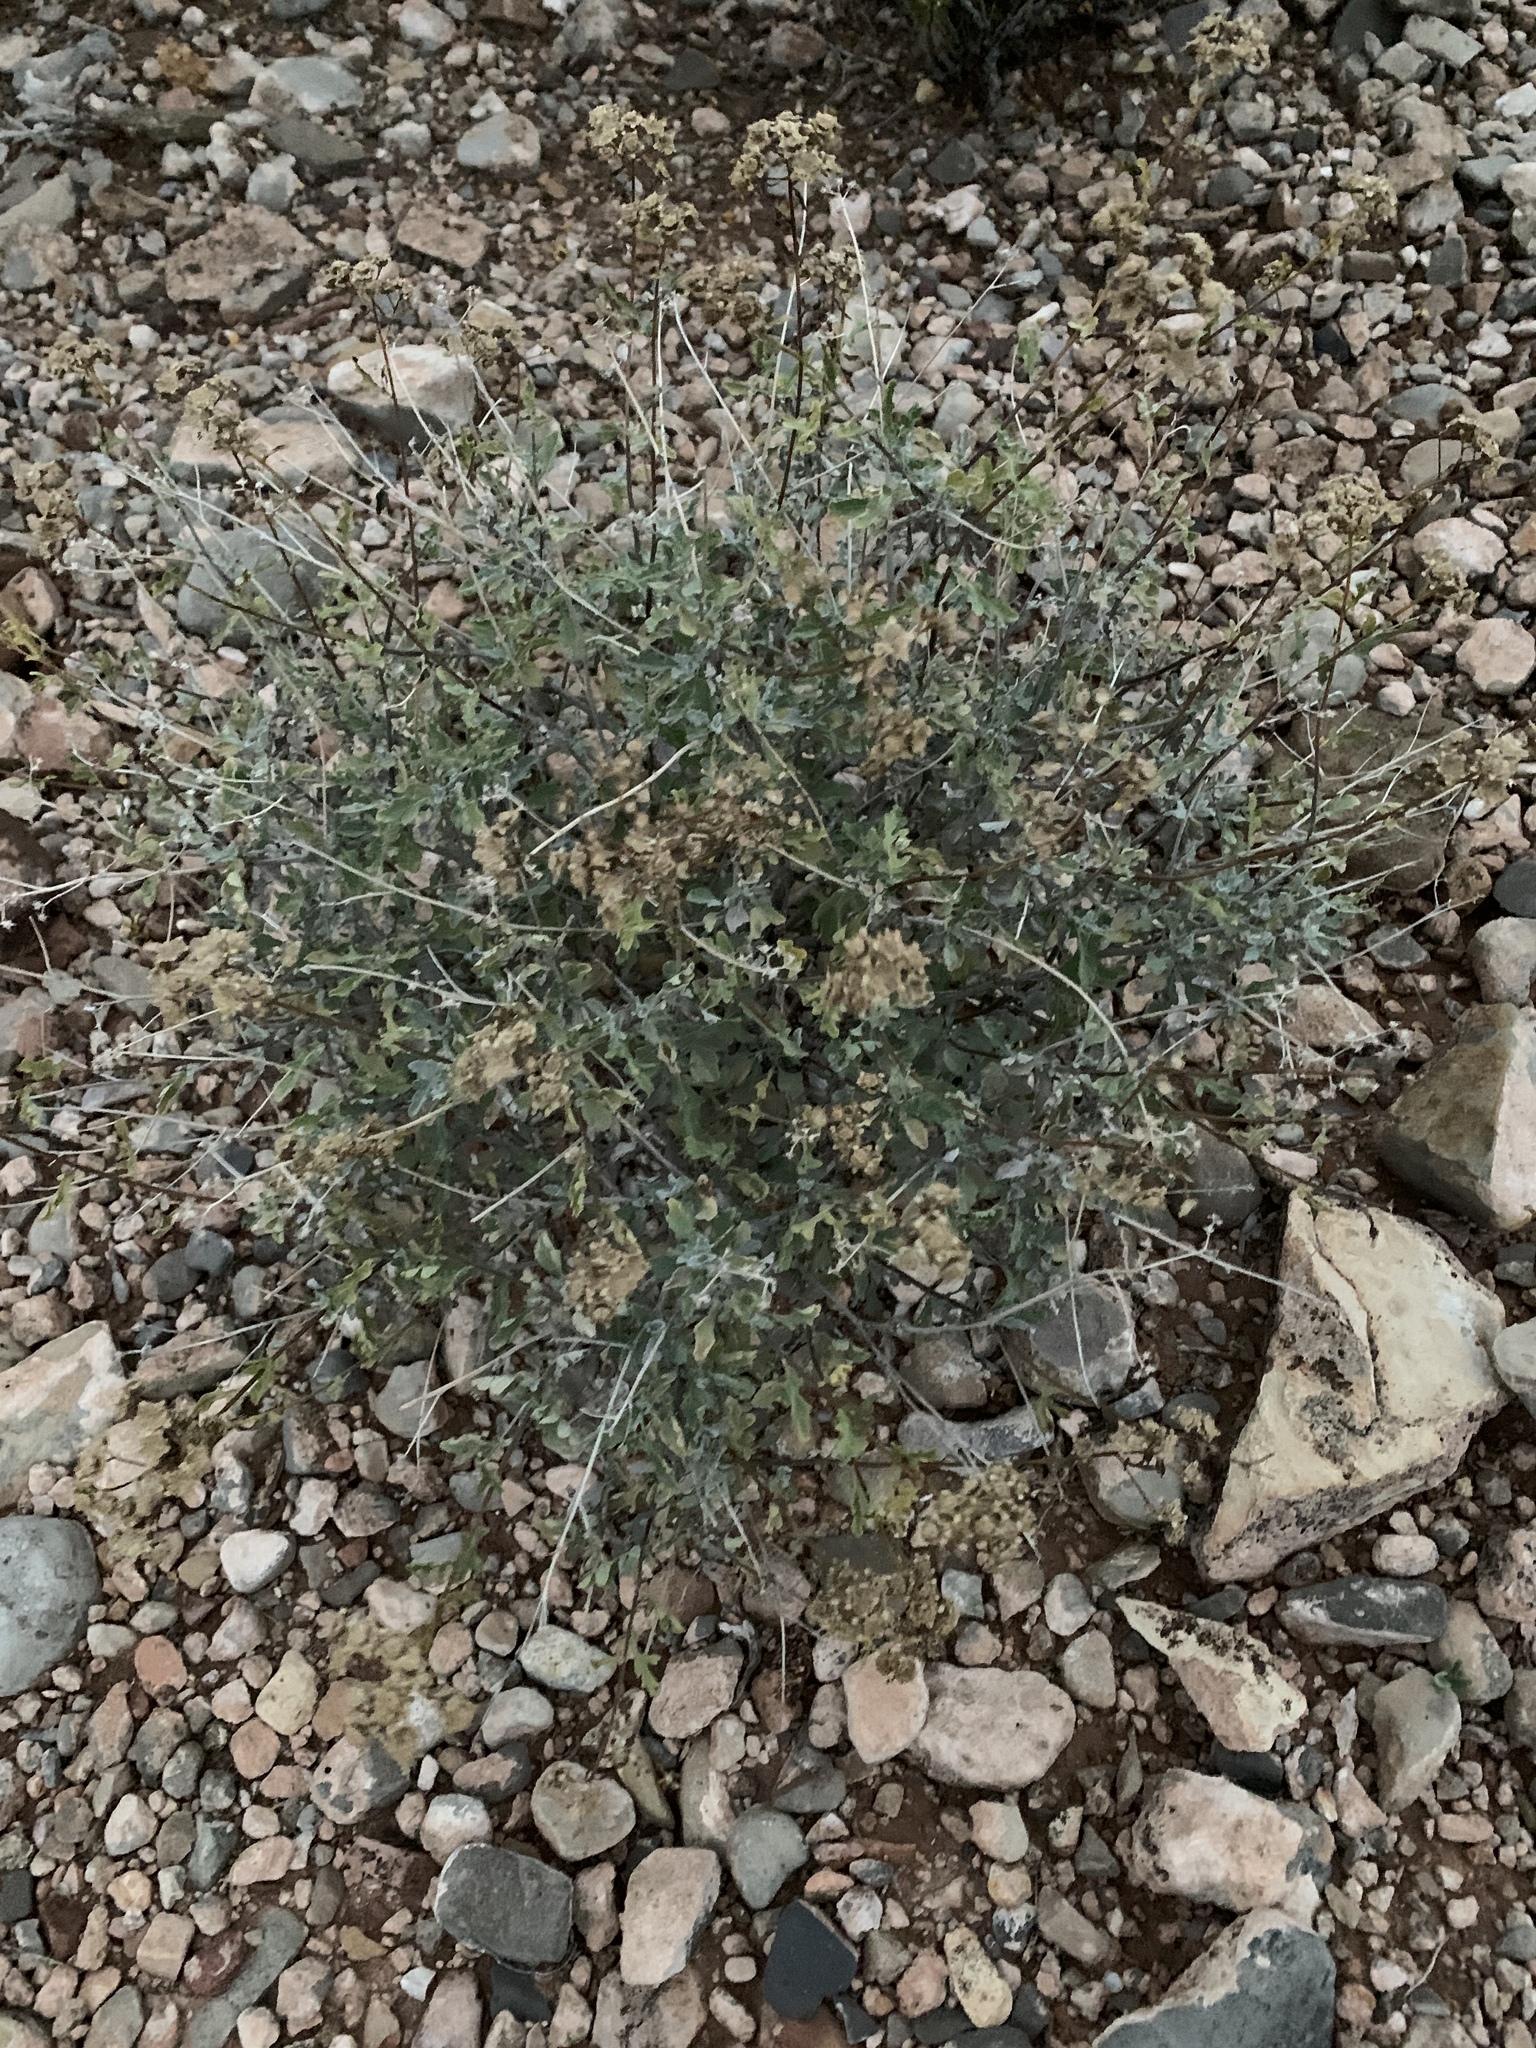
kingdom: Plantae
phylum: Tracheophyta
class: Magnoliopsida
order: Asterales
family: Asteraceae
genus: Parthenium
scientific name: Parthenium incanum
